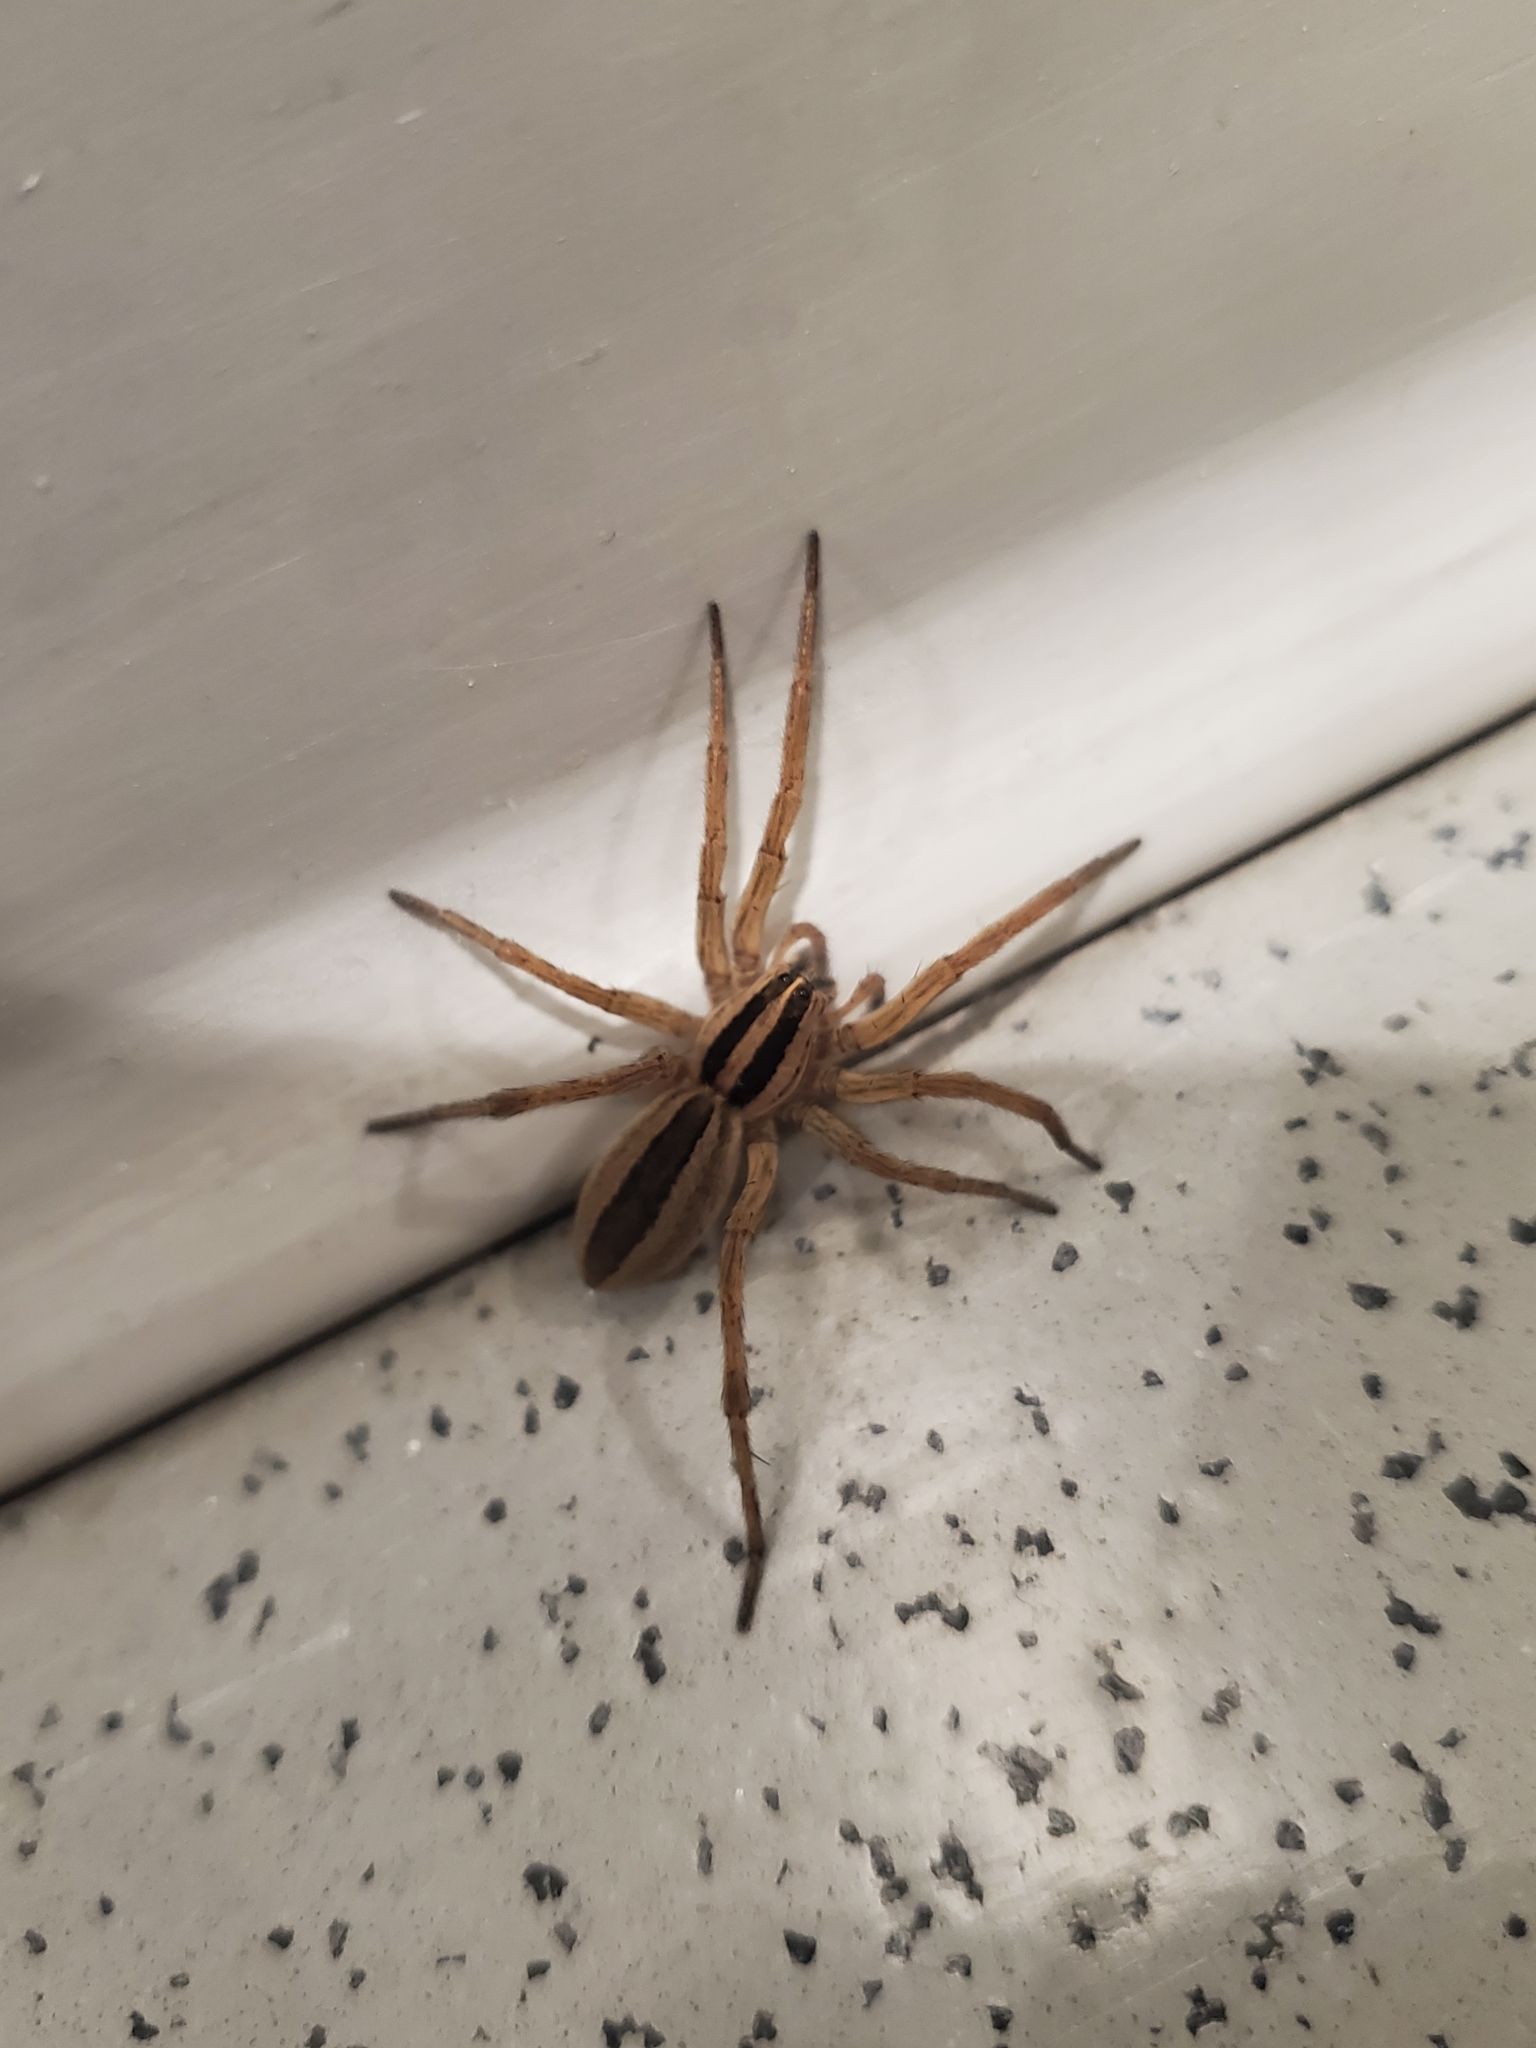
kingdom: Animalia
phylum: Arthropoda
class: Arachnida
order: Araneae
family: Lycosidae
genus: Rabidosa
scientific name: Rabidosa punctulata
